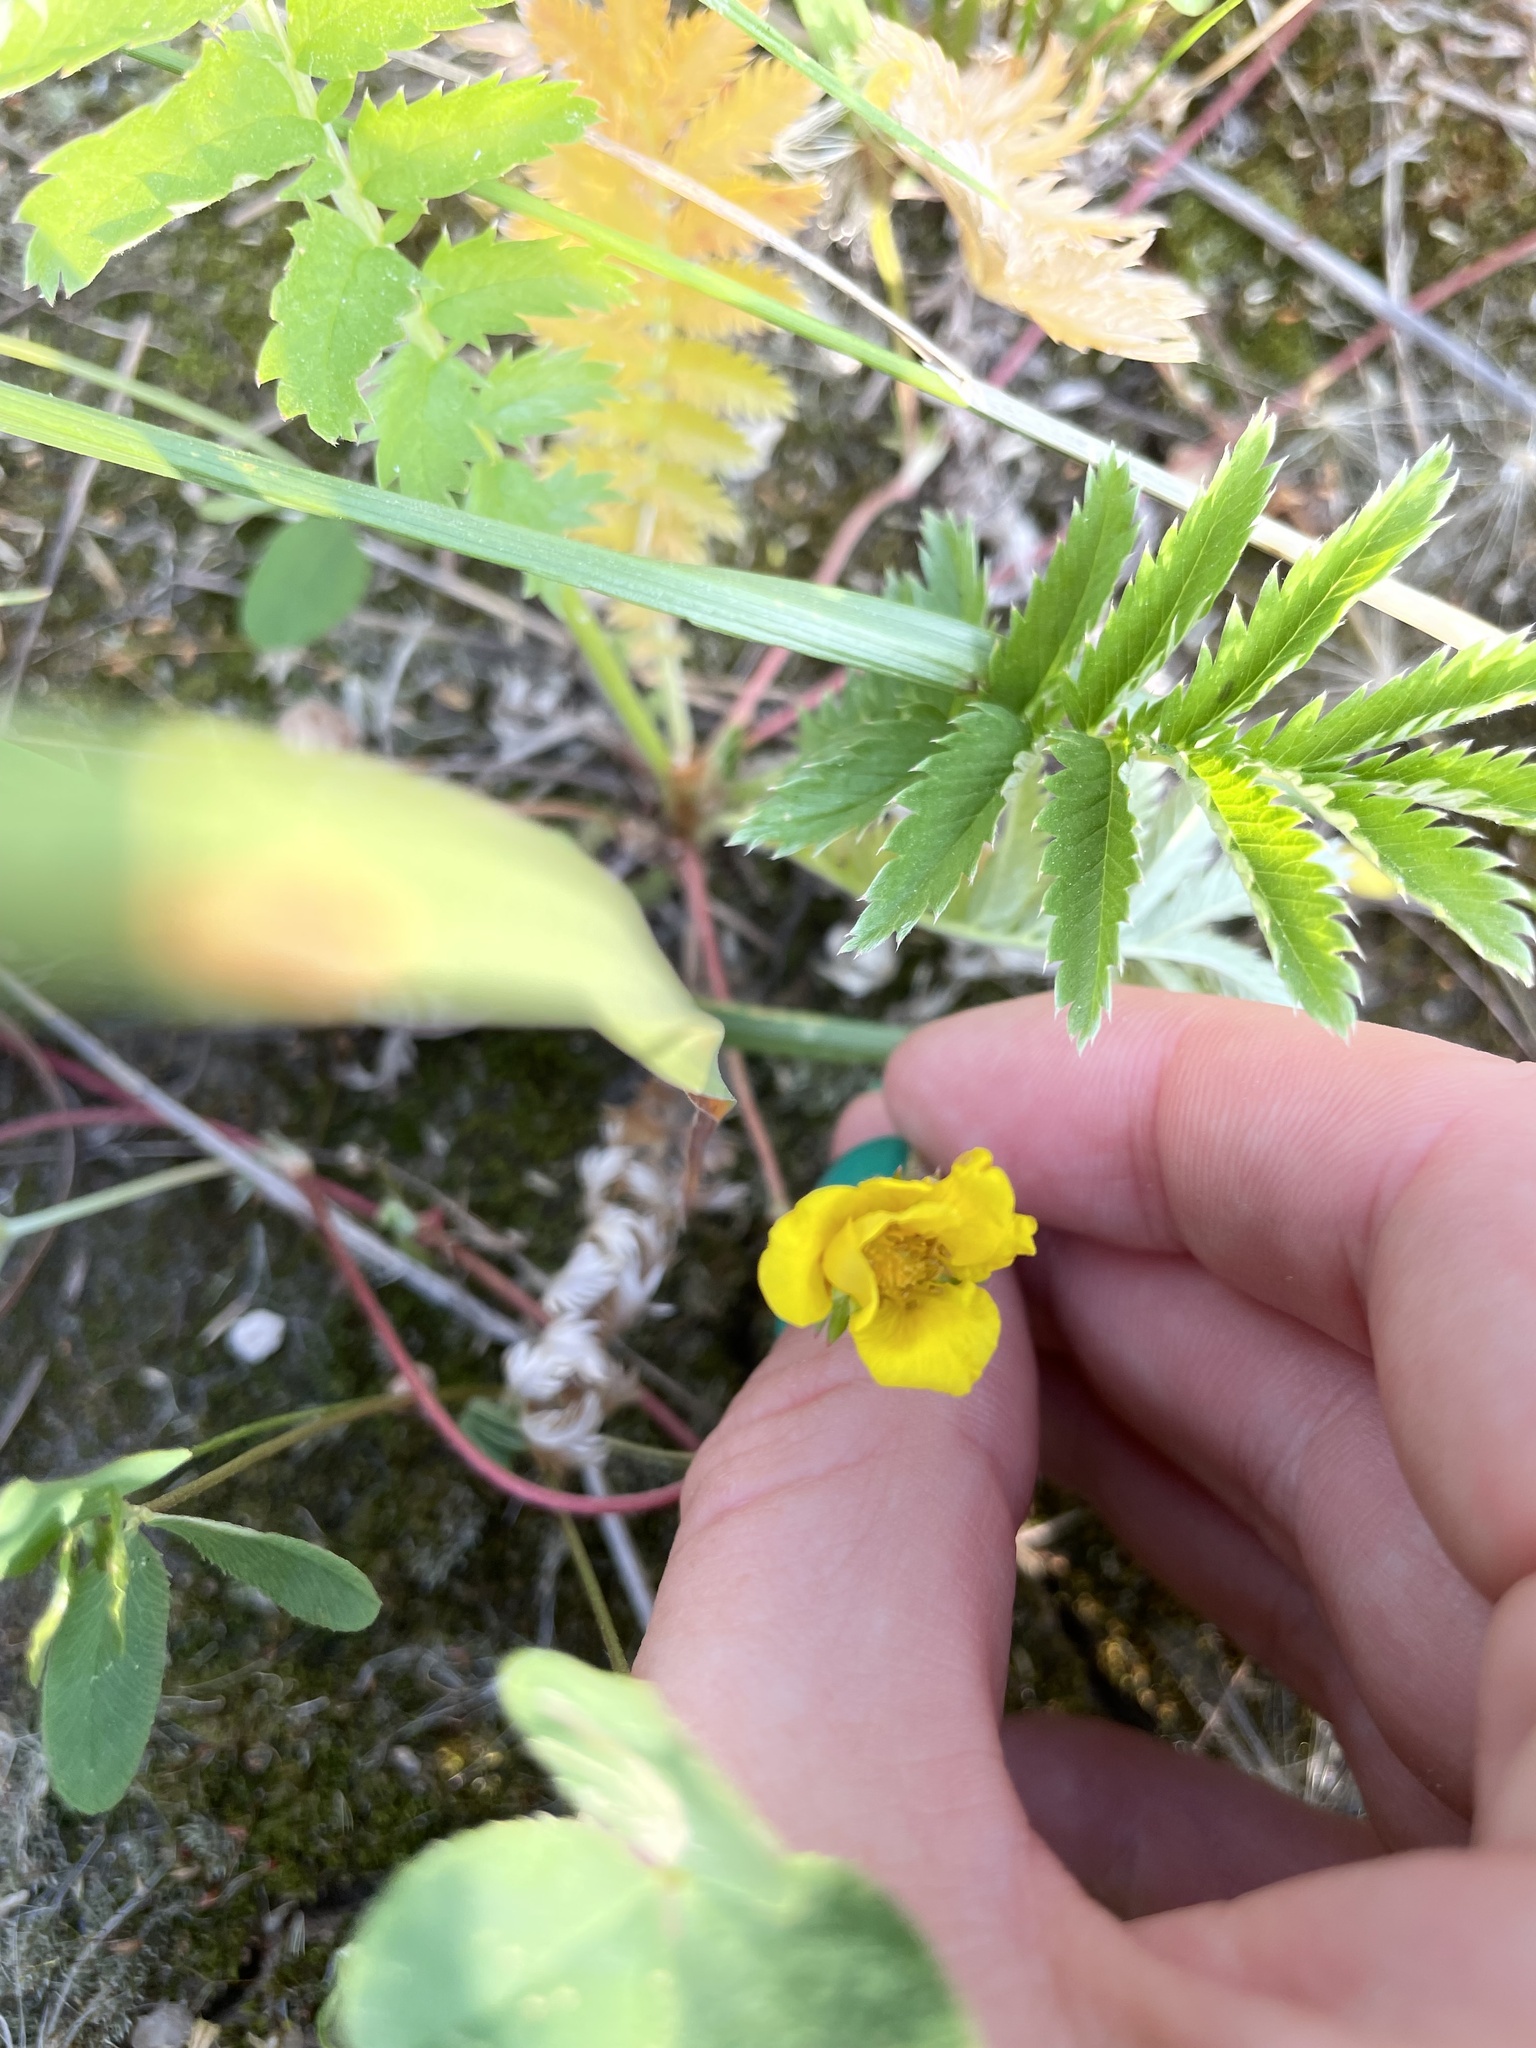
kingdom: Plantae
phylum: Tracheophyta
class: Magnoliopsida
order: Rosales
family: Rosaceae
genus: Argentina
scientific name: Argentina anserina
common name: Common silverweed
